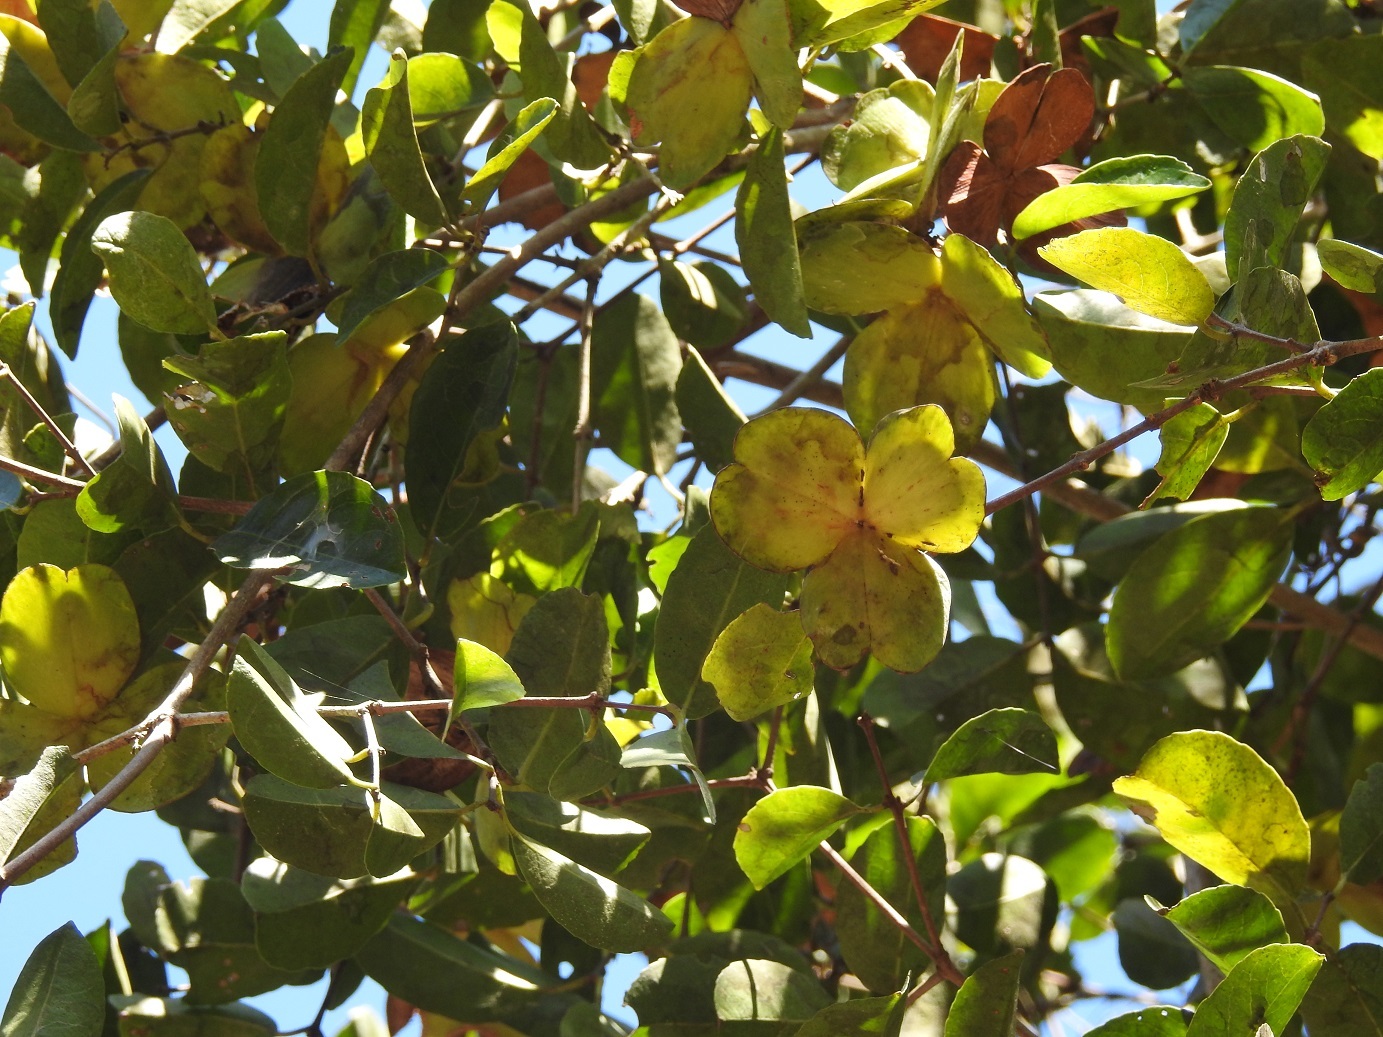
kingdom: Plantae
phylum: Tracheophyta
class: Magnoliopsida
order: Celastrales
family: Celastraceae
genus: Semialarium
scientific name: Semialarium mexicanum
